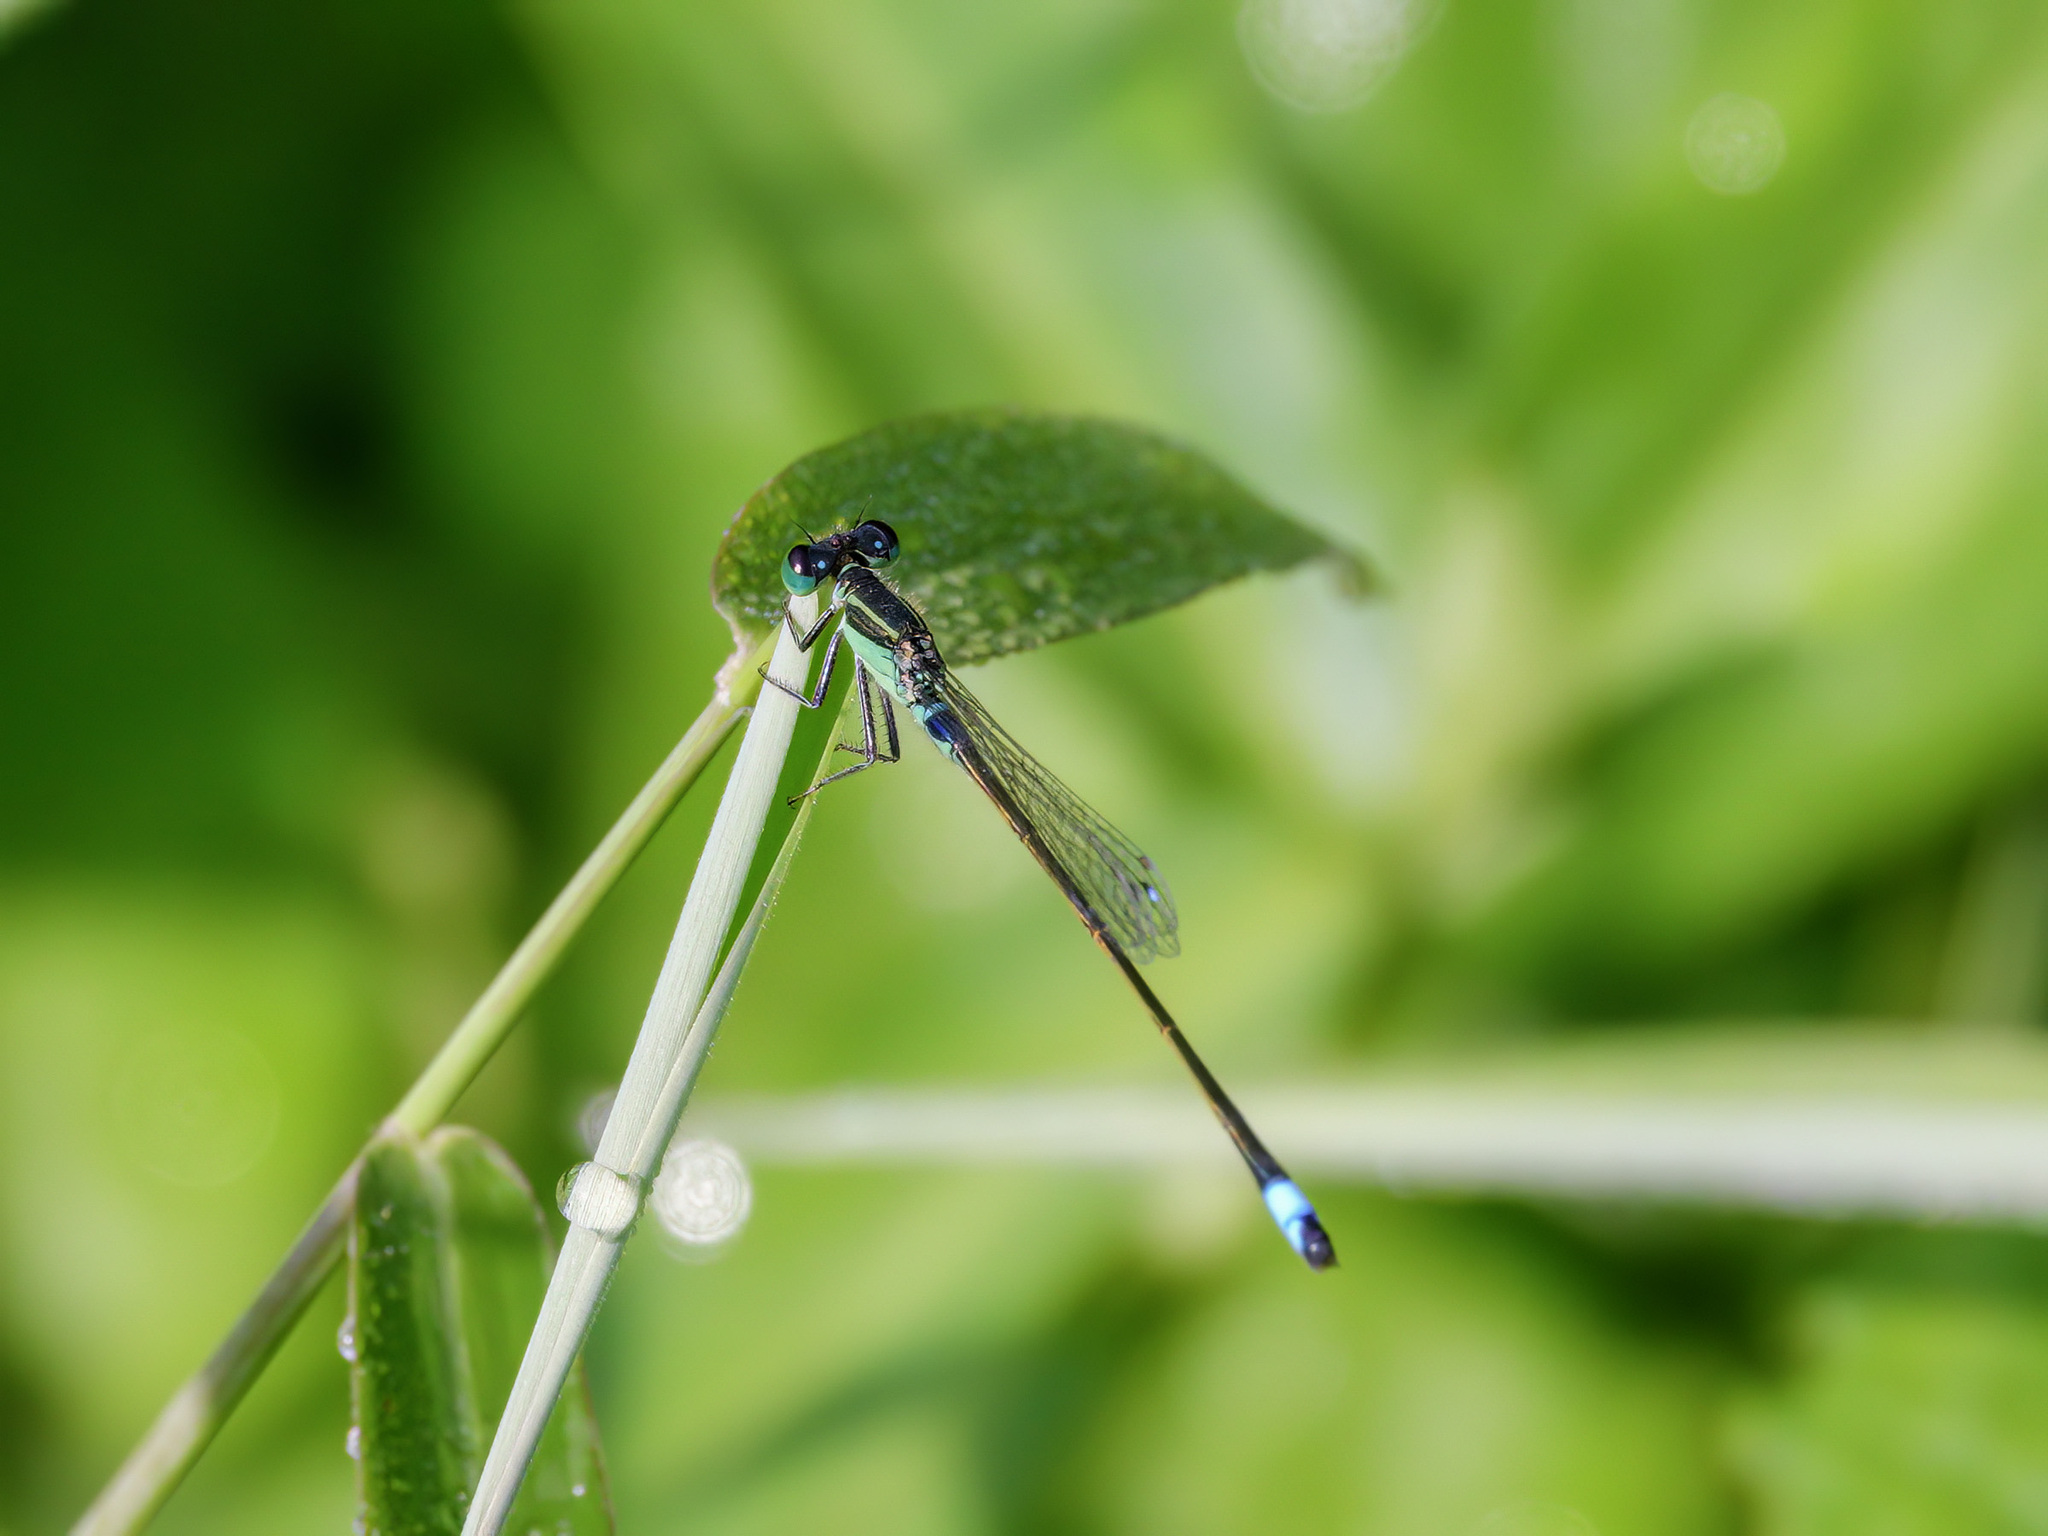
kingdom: Animalia
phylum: Arthropoda
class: Insecta
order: Odonata
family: Coenagrionidae
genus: Ischnura
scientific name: Ischnura senegalensis
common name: Tropical bluetail
